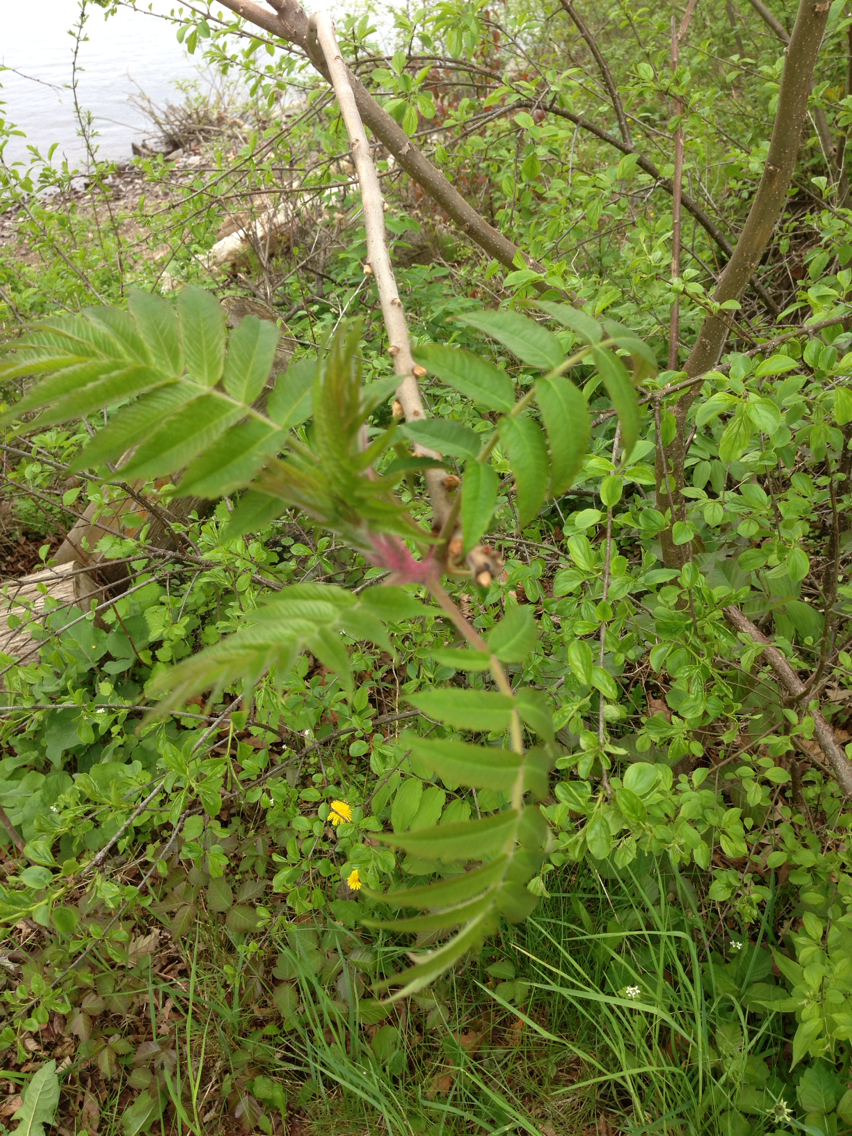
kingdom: Plantae
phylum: Tracheophyta
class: Magnoliopsida
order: Sapindales
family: Anacardiaceae
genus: Rhus
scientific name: Rhus typhina
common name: Staghorn sumac
